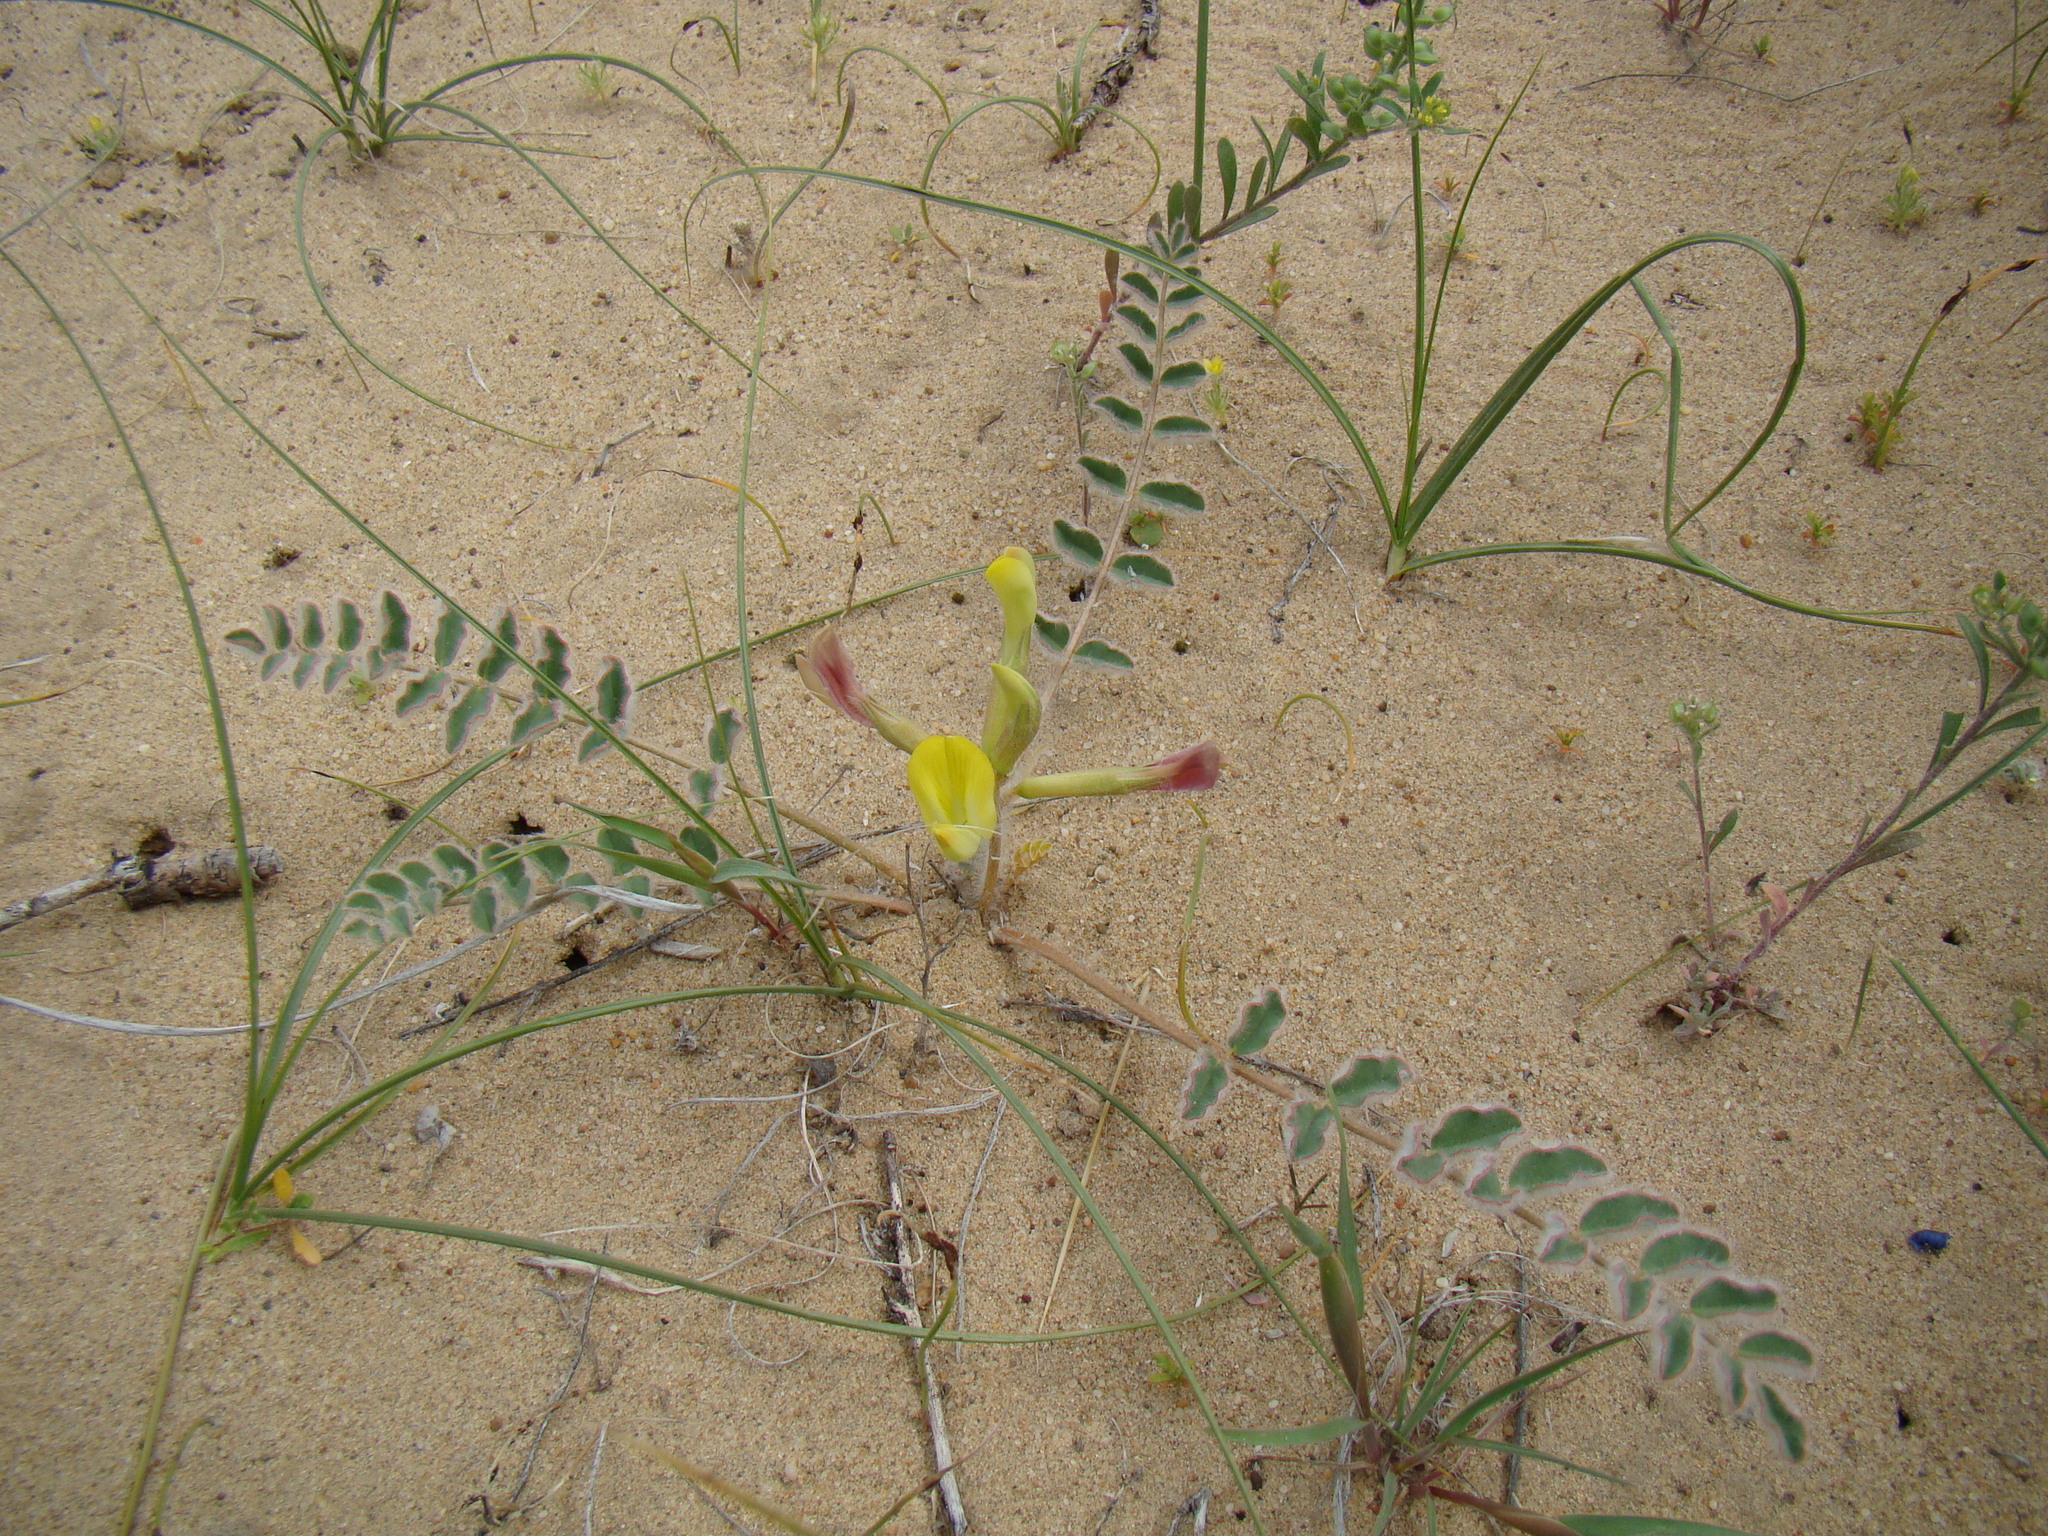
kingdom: Plantae
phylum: Tracheophyta
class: Magnoliopsida
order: Fabales
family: Fabaceae
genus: Astragalus
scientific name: Astragalus flexus
